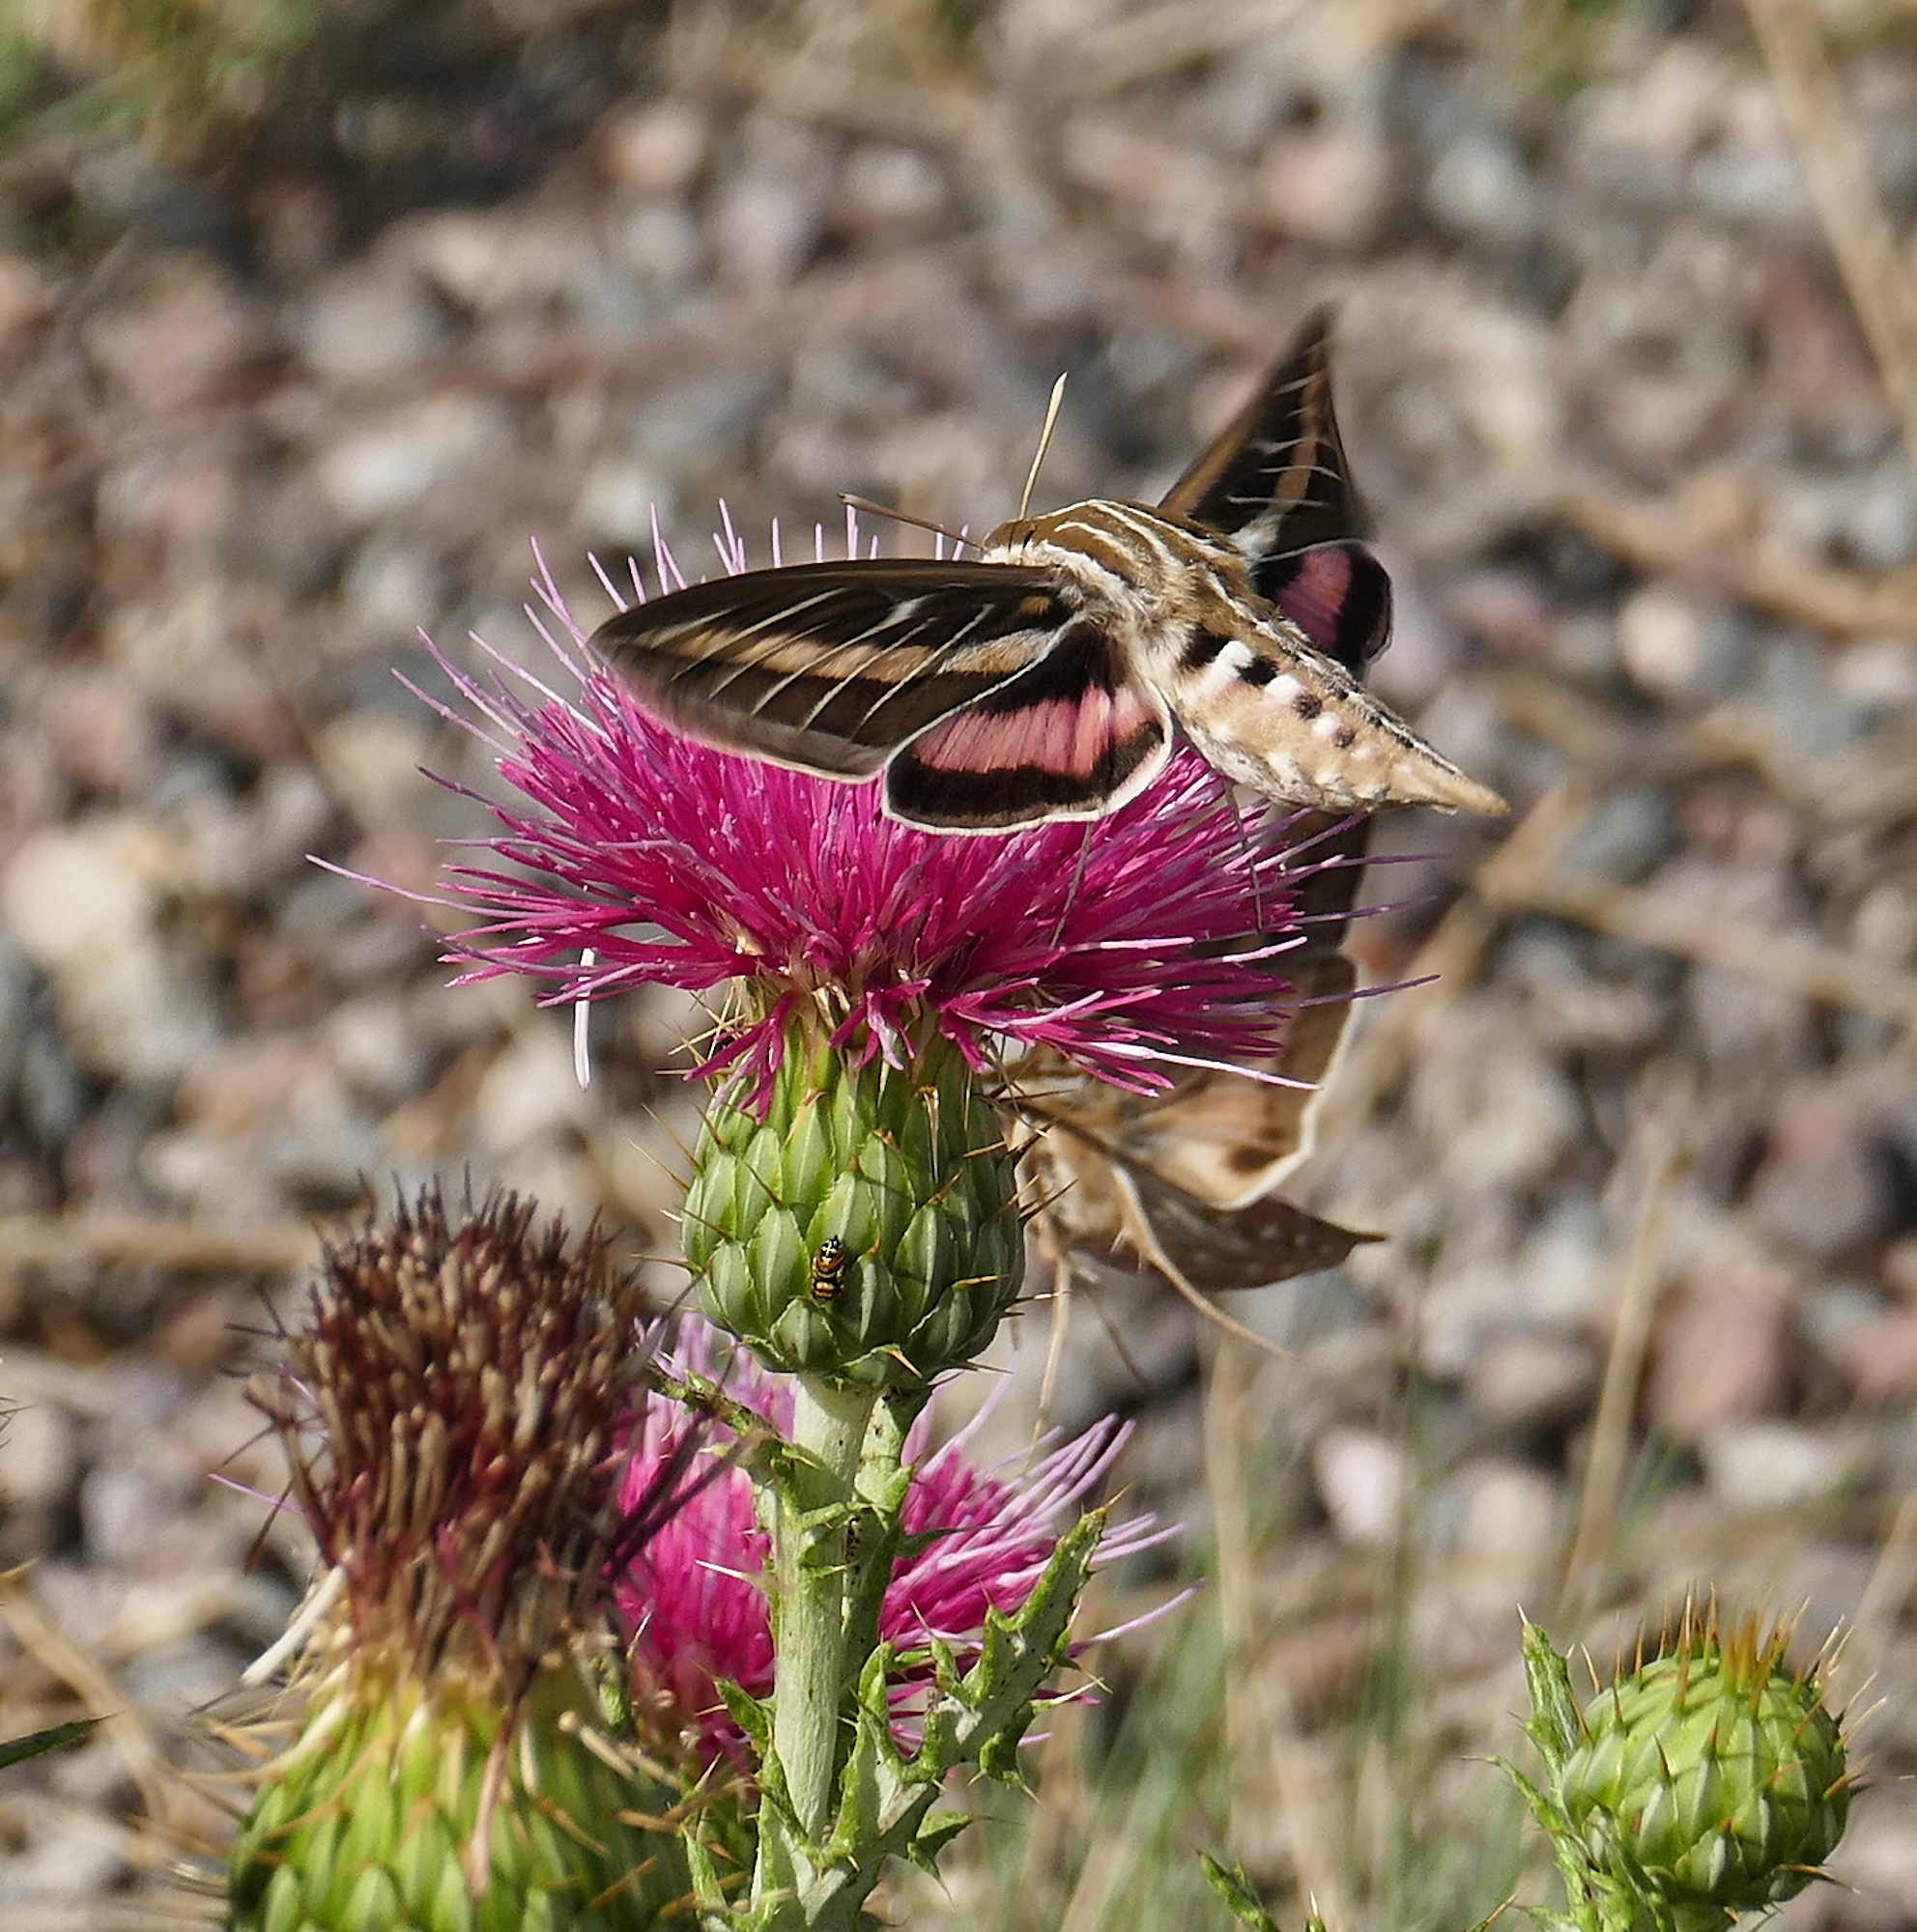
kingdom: Animalia
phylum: Arthropoda
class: Insecta
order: Lepidoptera
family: Sphingidae
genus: Hyles
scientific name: Hyles lineata
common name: White-lined sphinx
